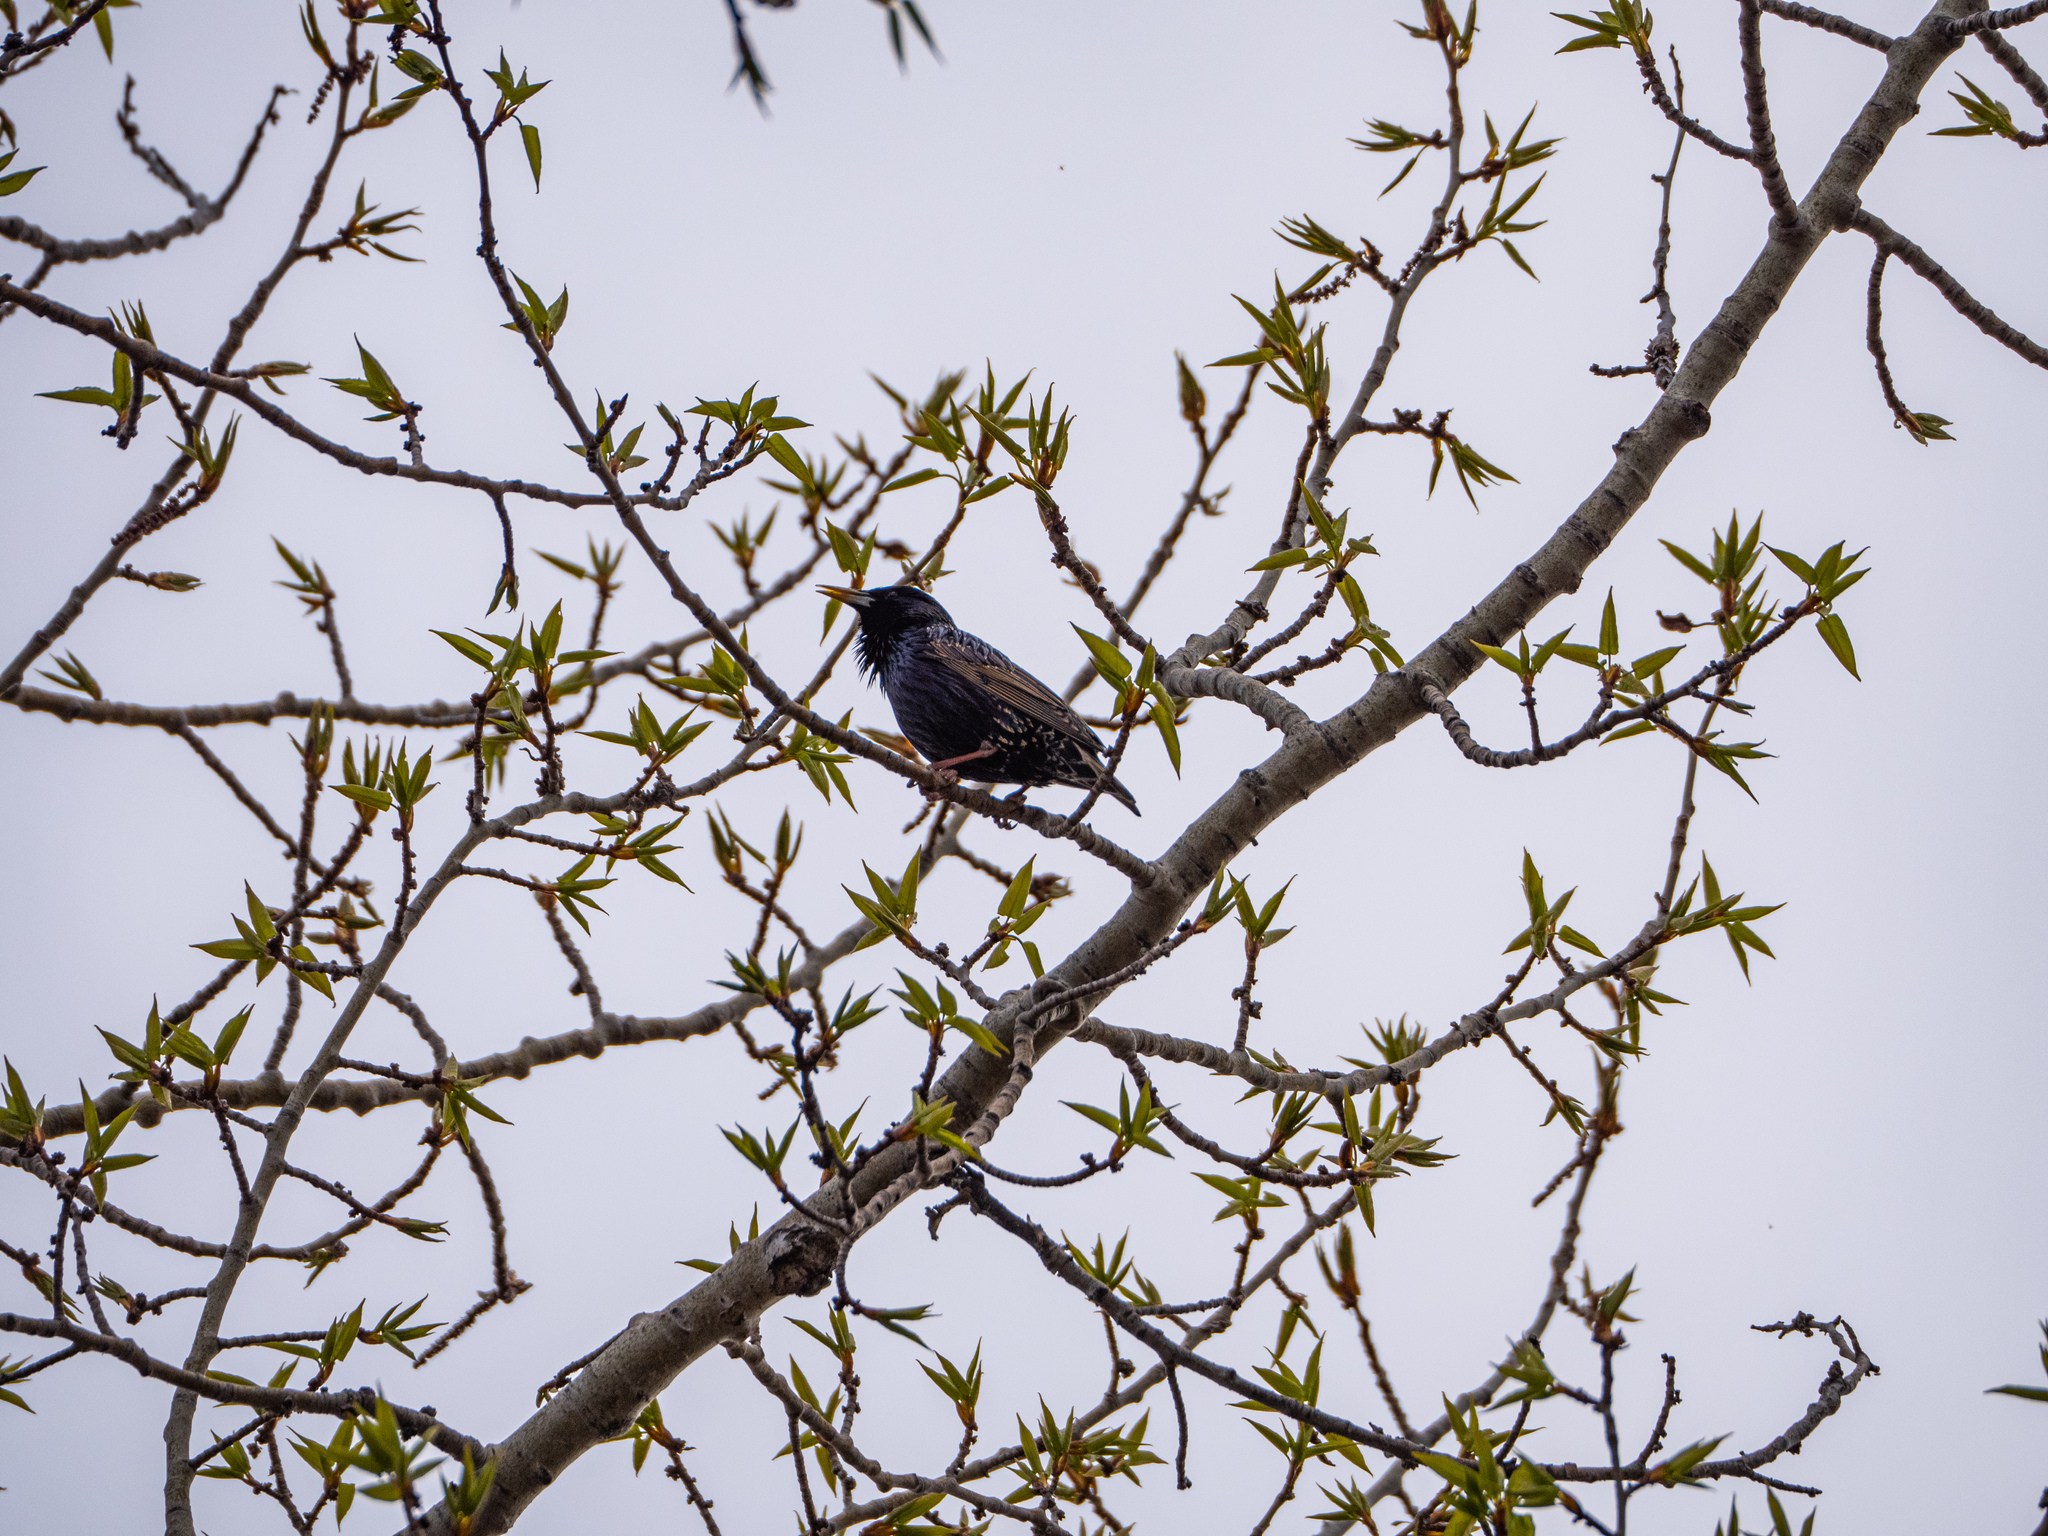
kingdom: Animalia
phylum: Chordata
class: Aves
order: Passeriformes
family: Sturnidae
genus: Sturnus
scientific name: Sturnus vulgaris
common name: Common starling
